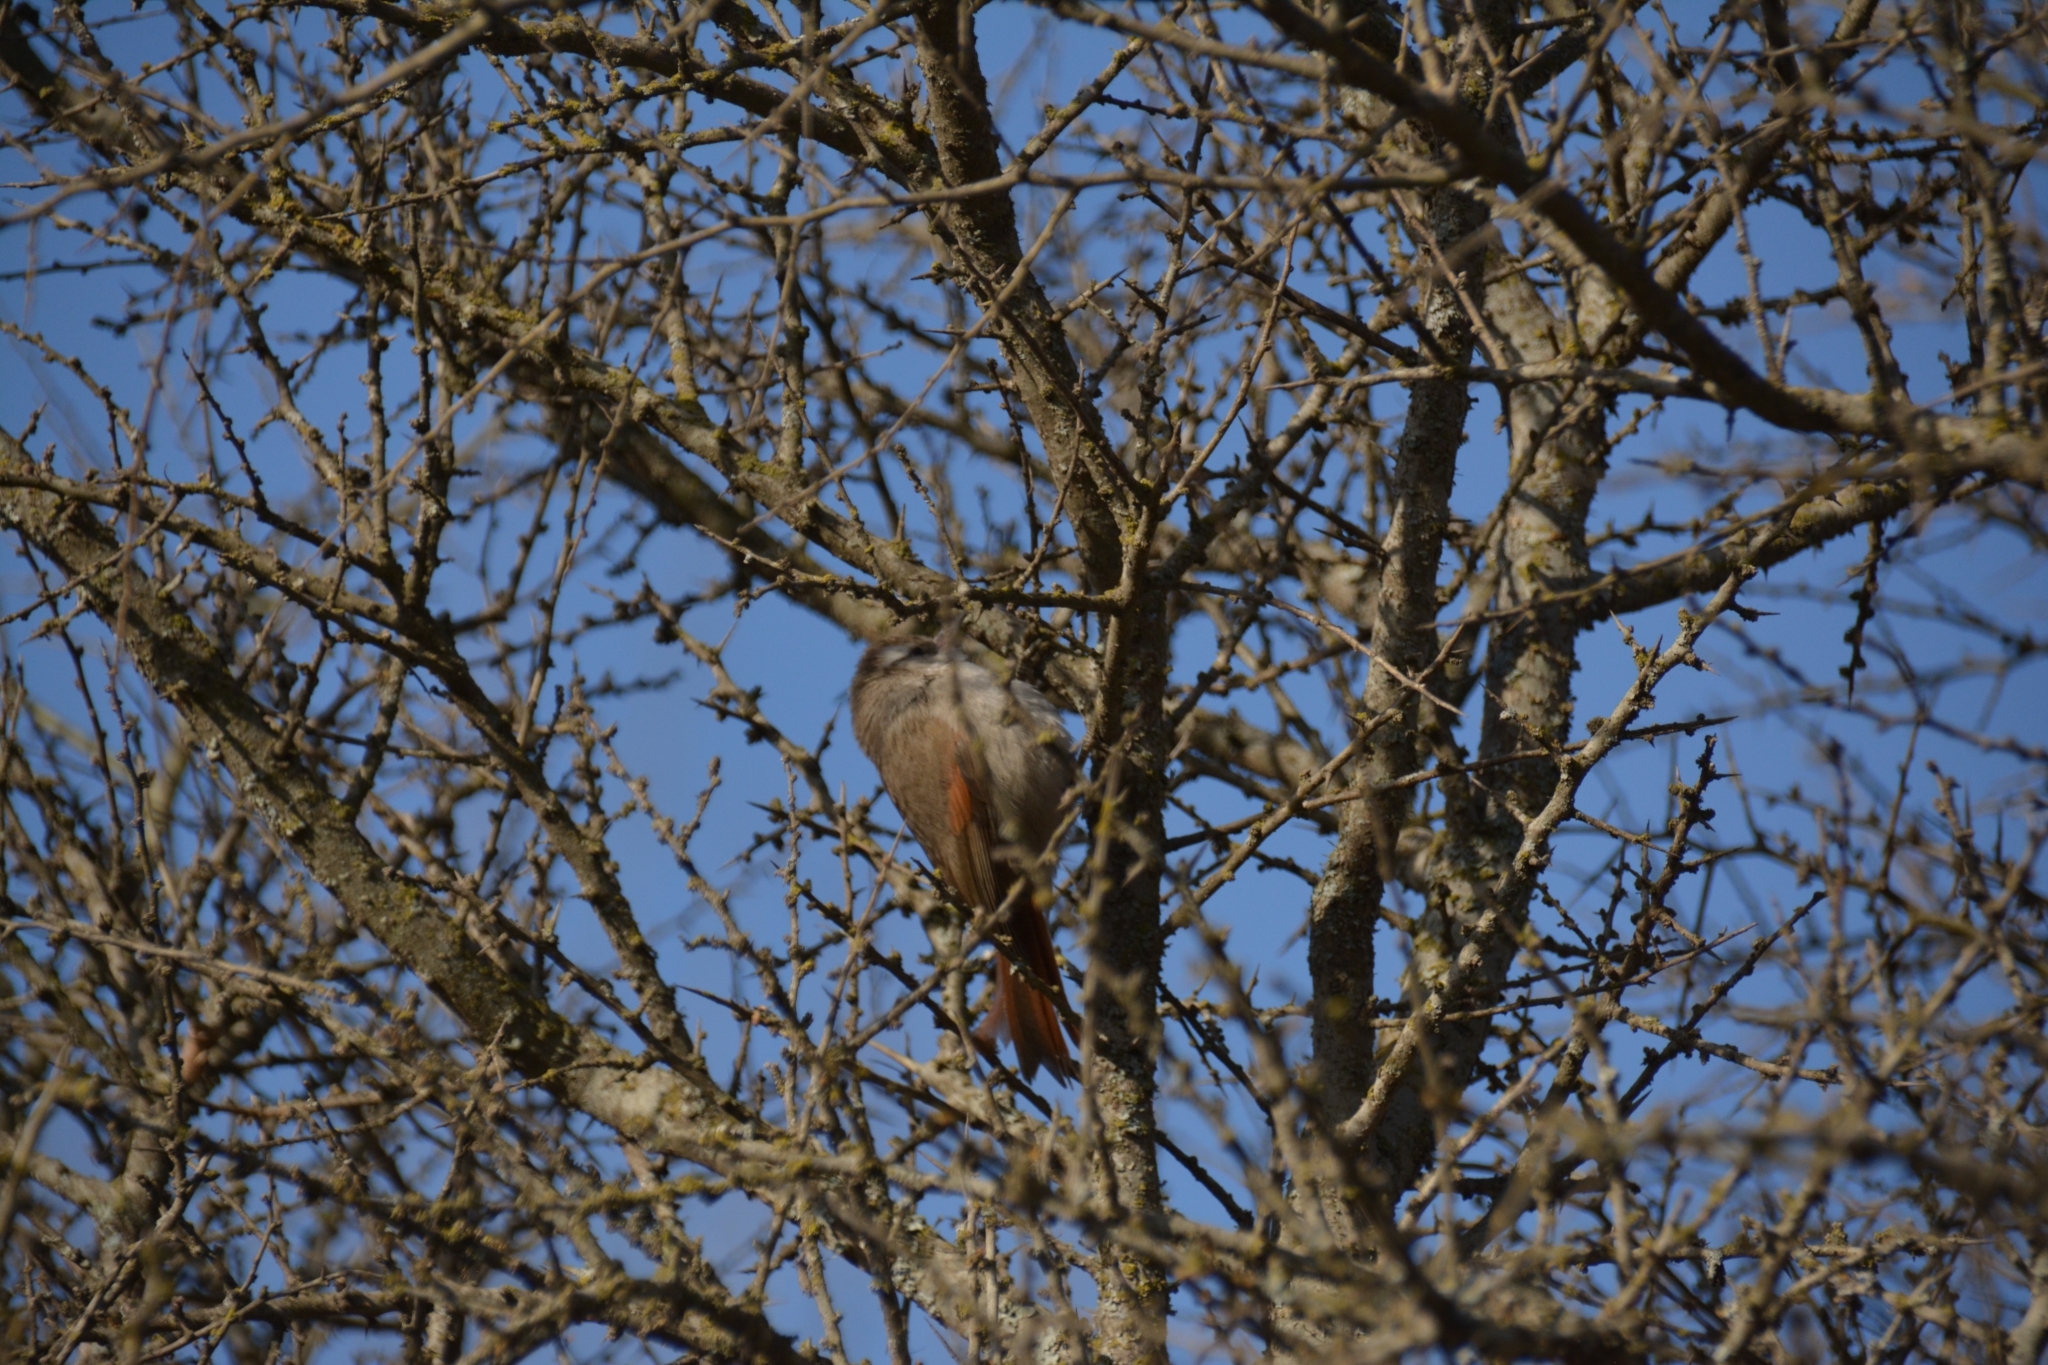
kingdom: Animalia
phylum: Chordata
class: Aves
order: Passeriformes
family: Furnariidae
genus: Cranioleuca
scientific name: Cranioleuca pyrrhophia
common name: Stripe-crowned spinetail
